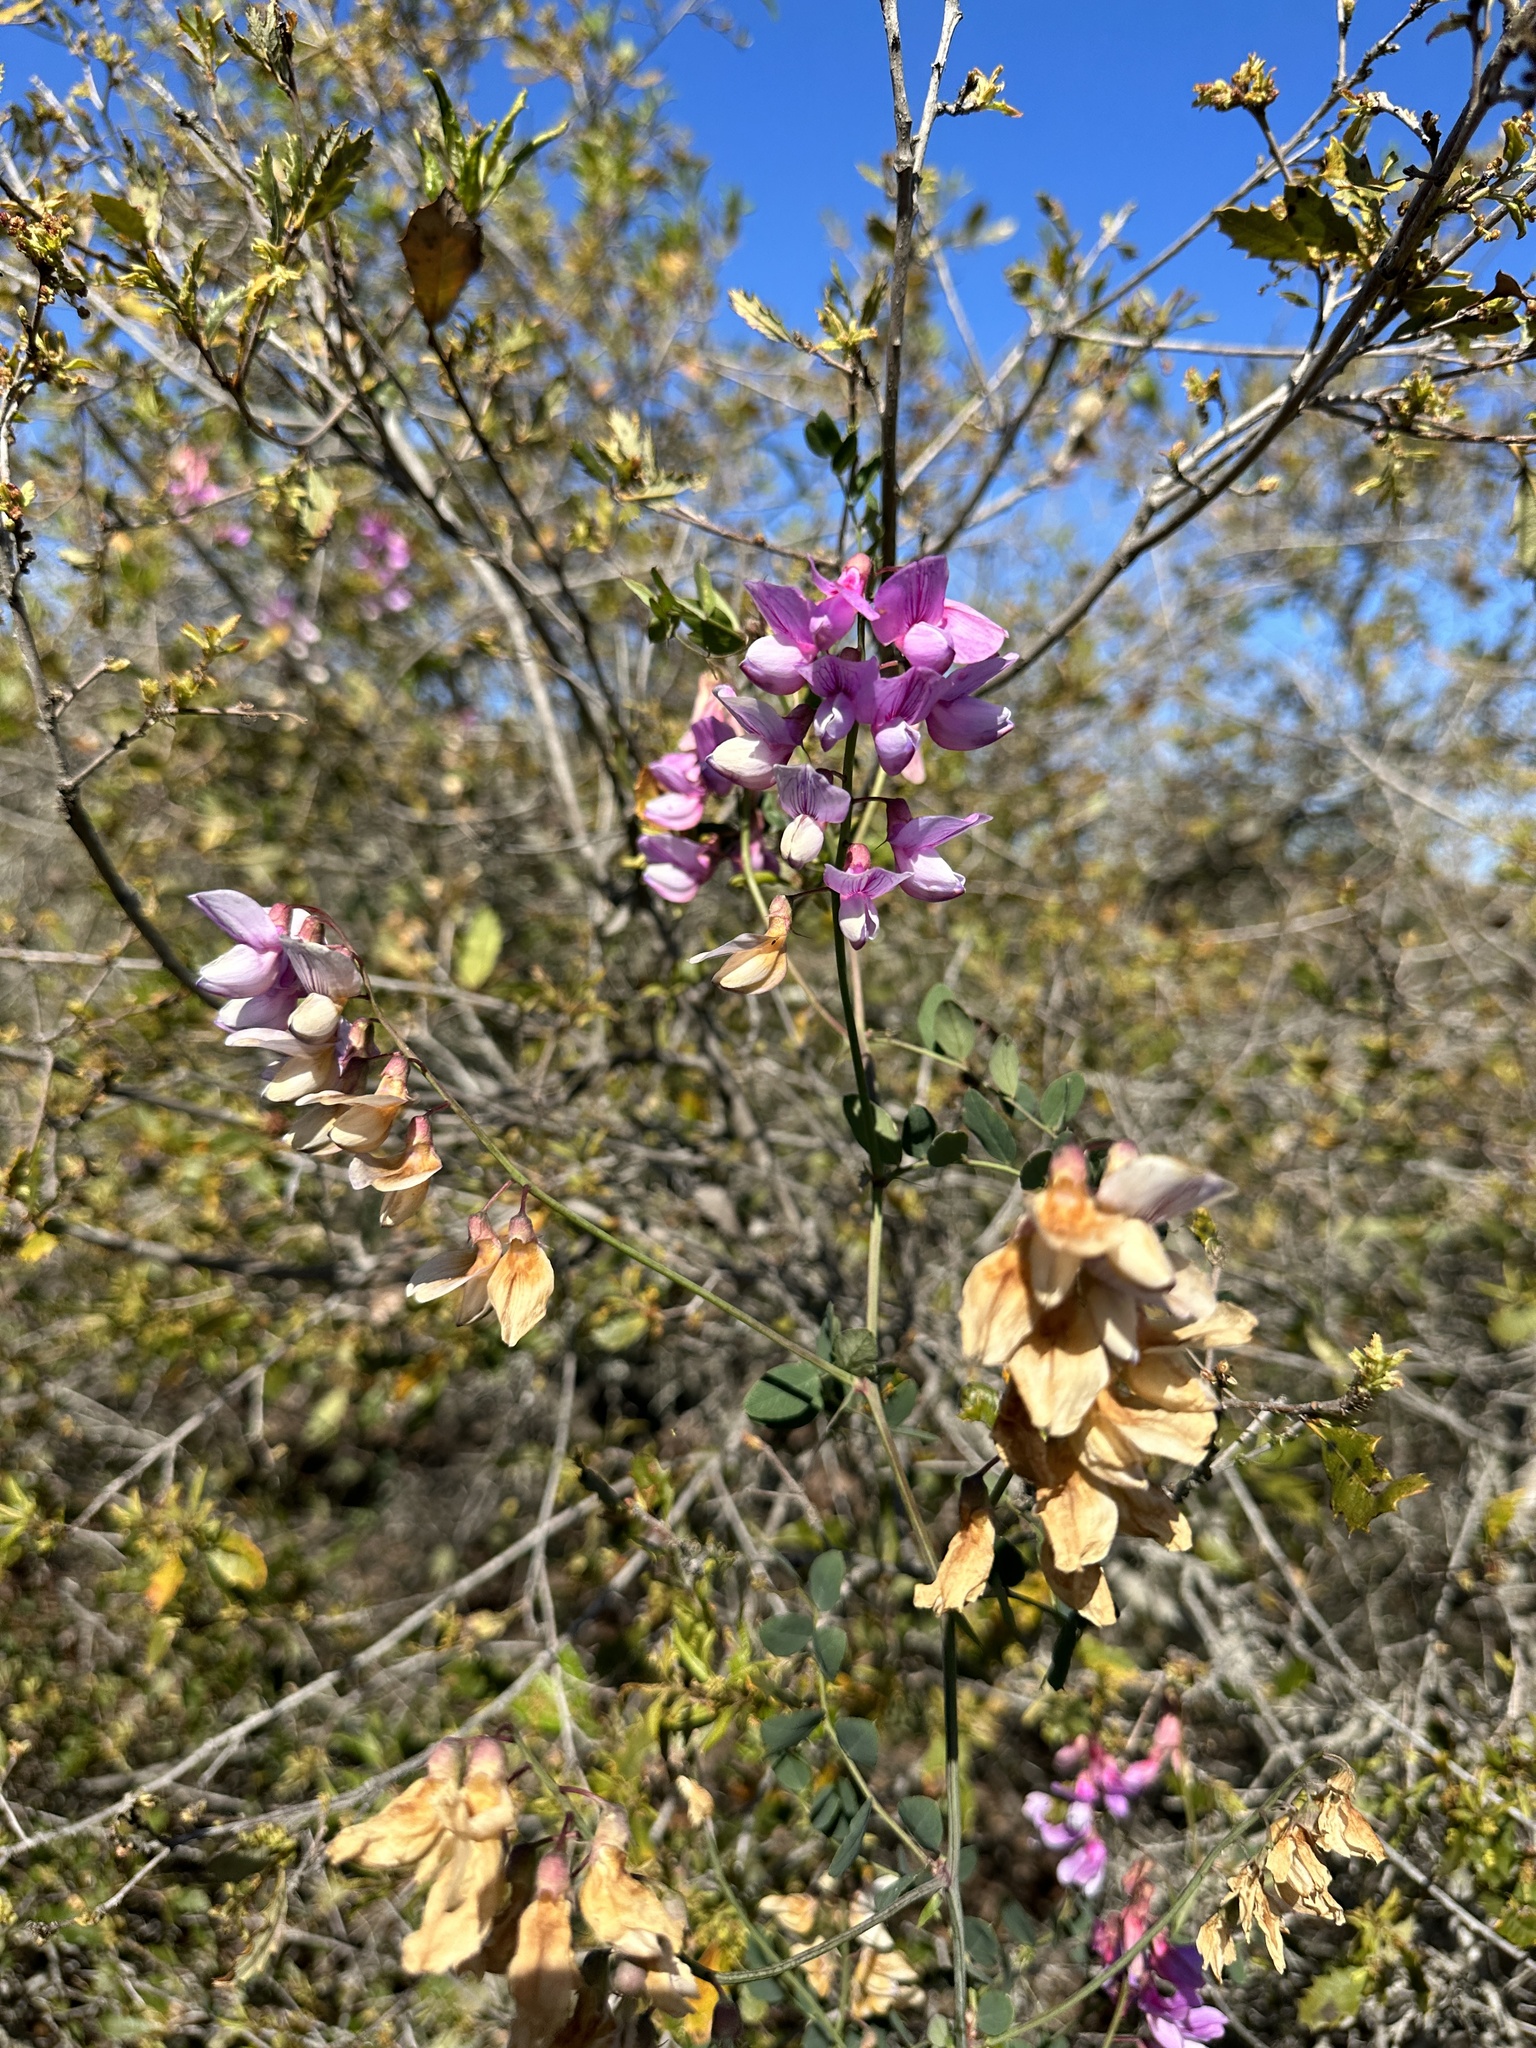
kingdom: Plantae
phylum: Tracheophyta
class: Magnoliopsida
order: Fabales
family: Fabaceae
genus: Lathyrus
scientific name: Lathyrus vestitus
